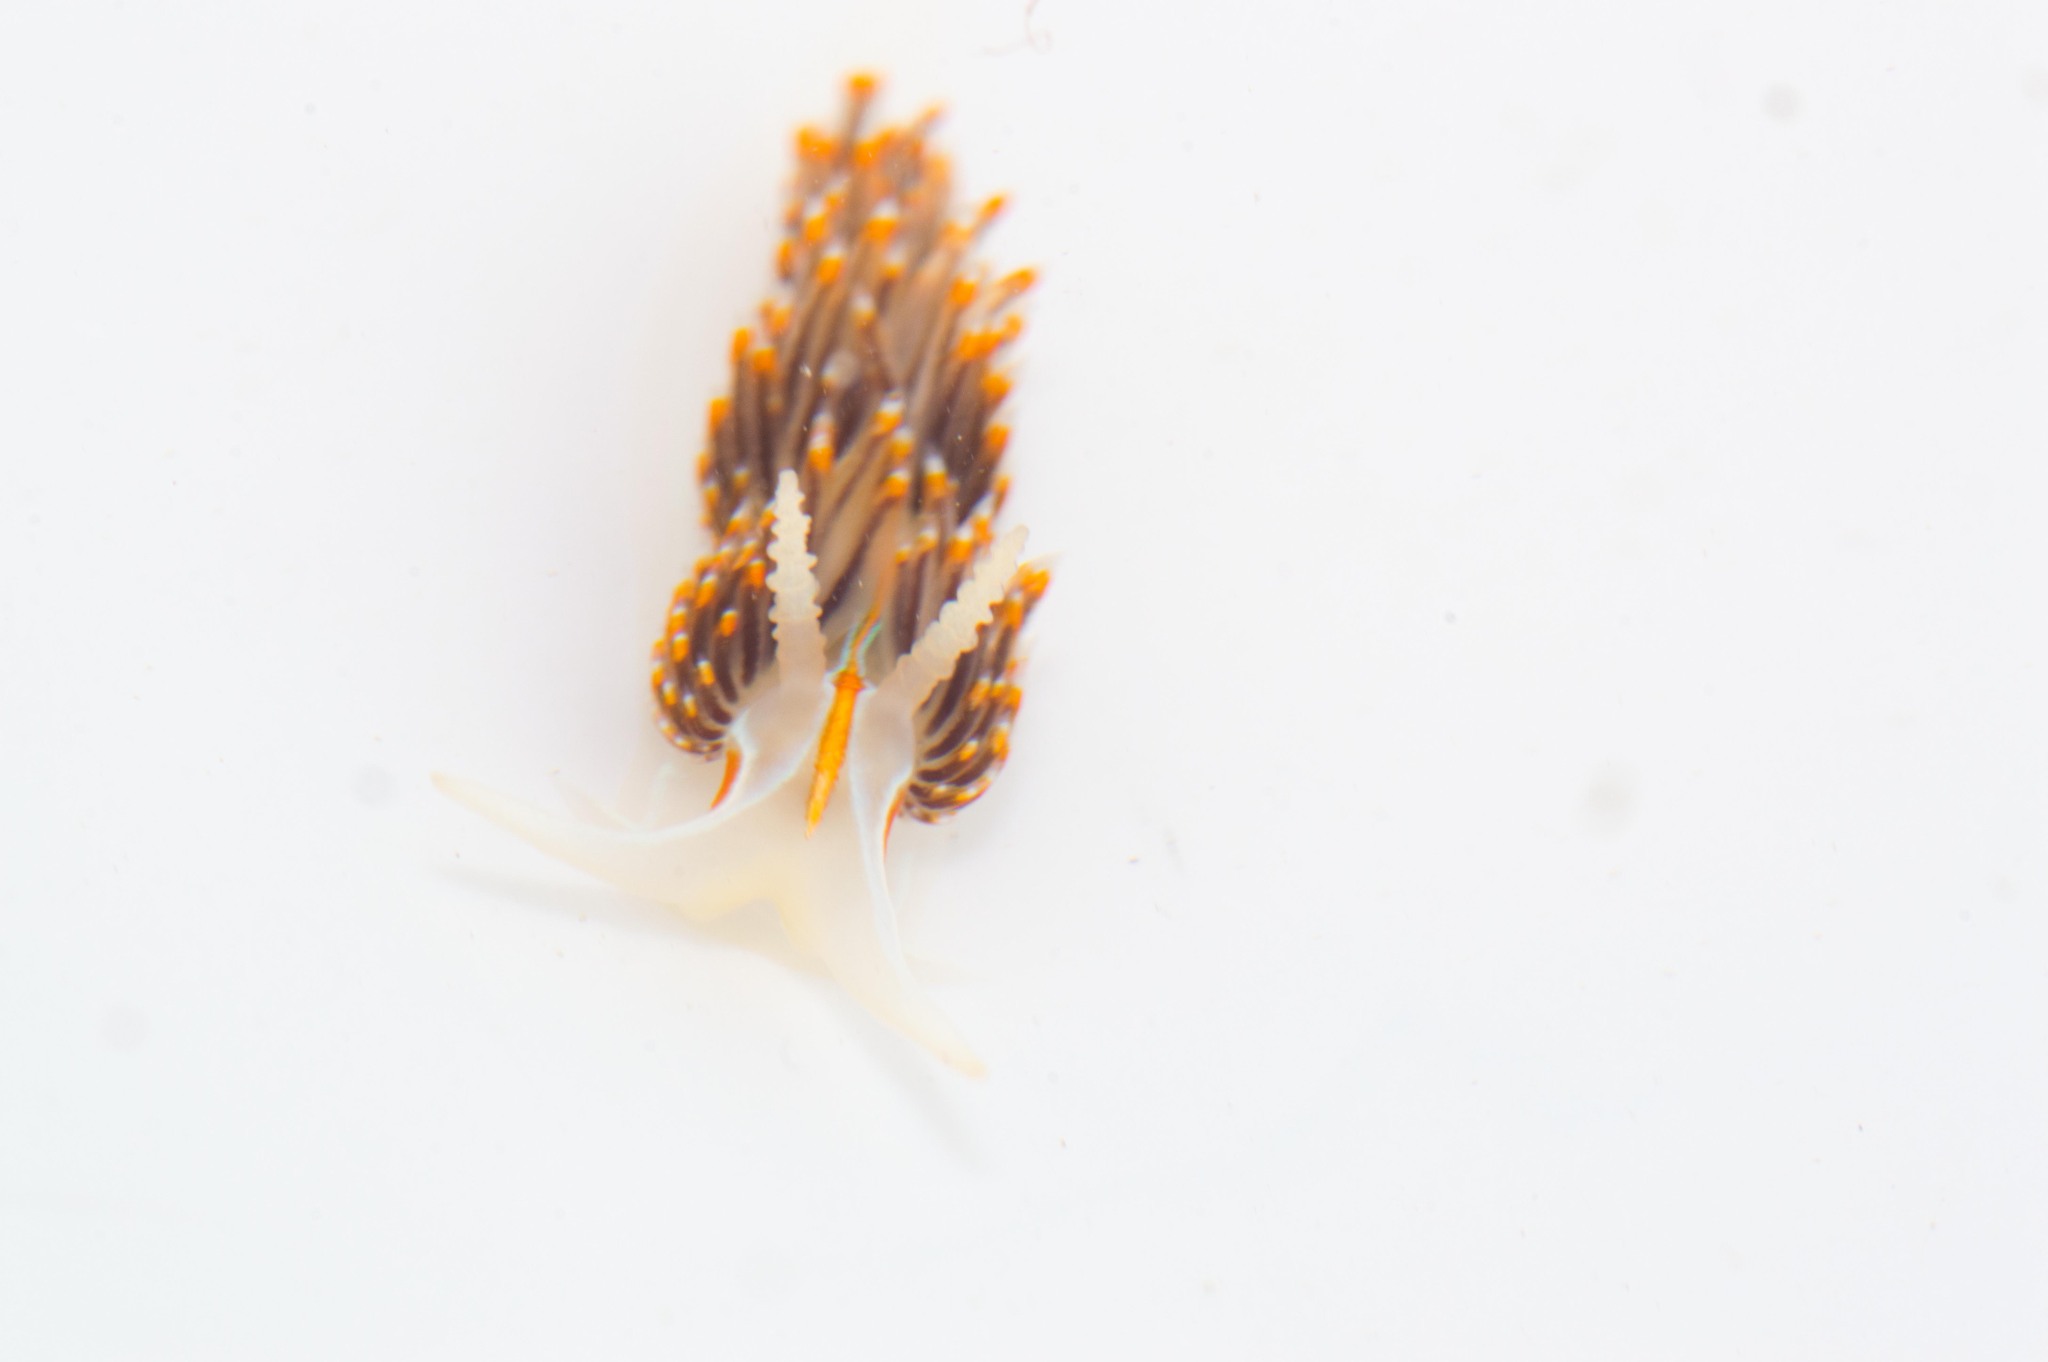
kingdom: Animalia
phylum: Mollusca
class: Gastropoda
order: Nudibranchia
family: Myrrhinidae
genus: Hermissenda
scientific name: Hermissenda opalescens
